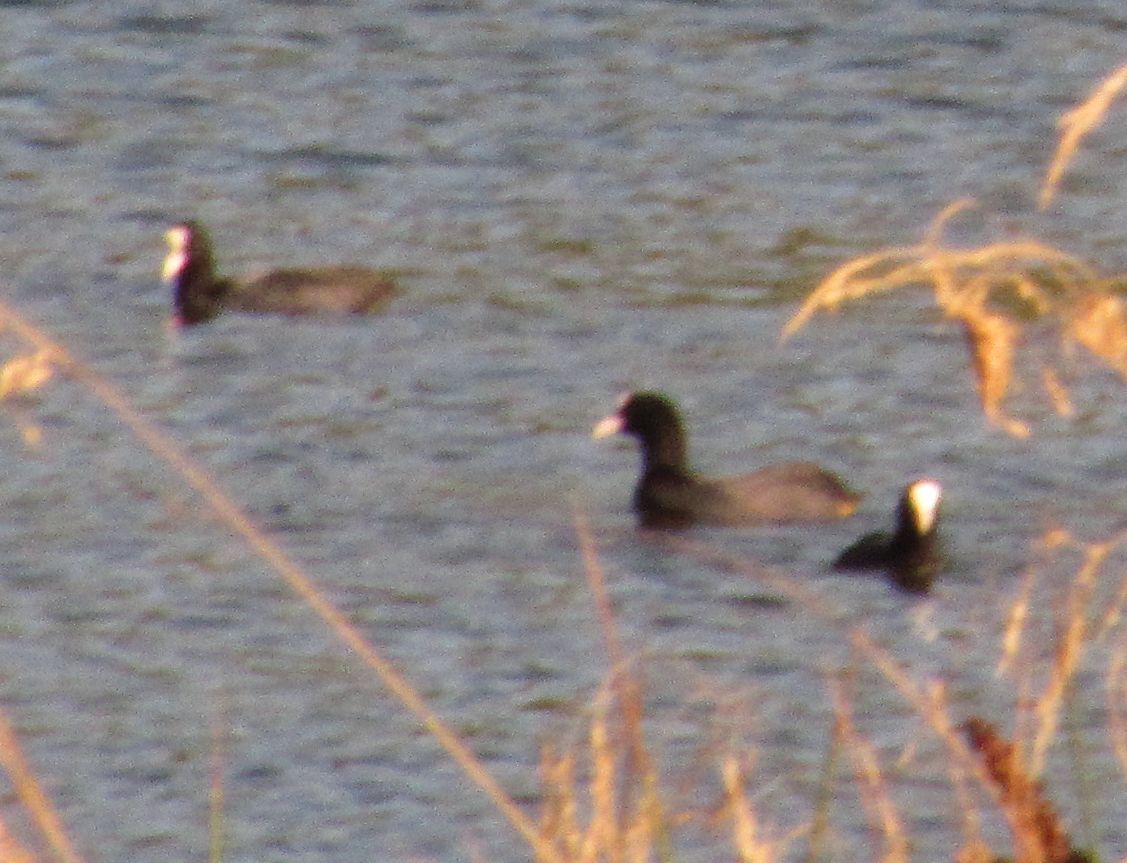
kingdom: Animalia
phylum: Chordata
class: Aves
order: Gruiformes
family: Rallidae
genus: Fulica
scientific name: Fulica atra
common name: Eurasian coot
